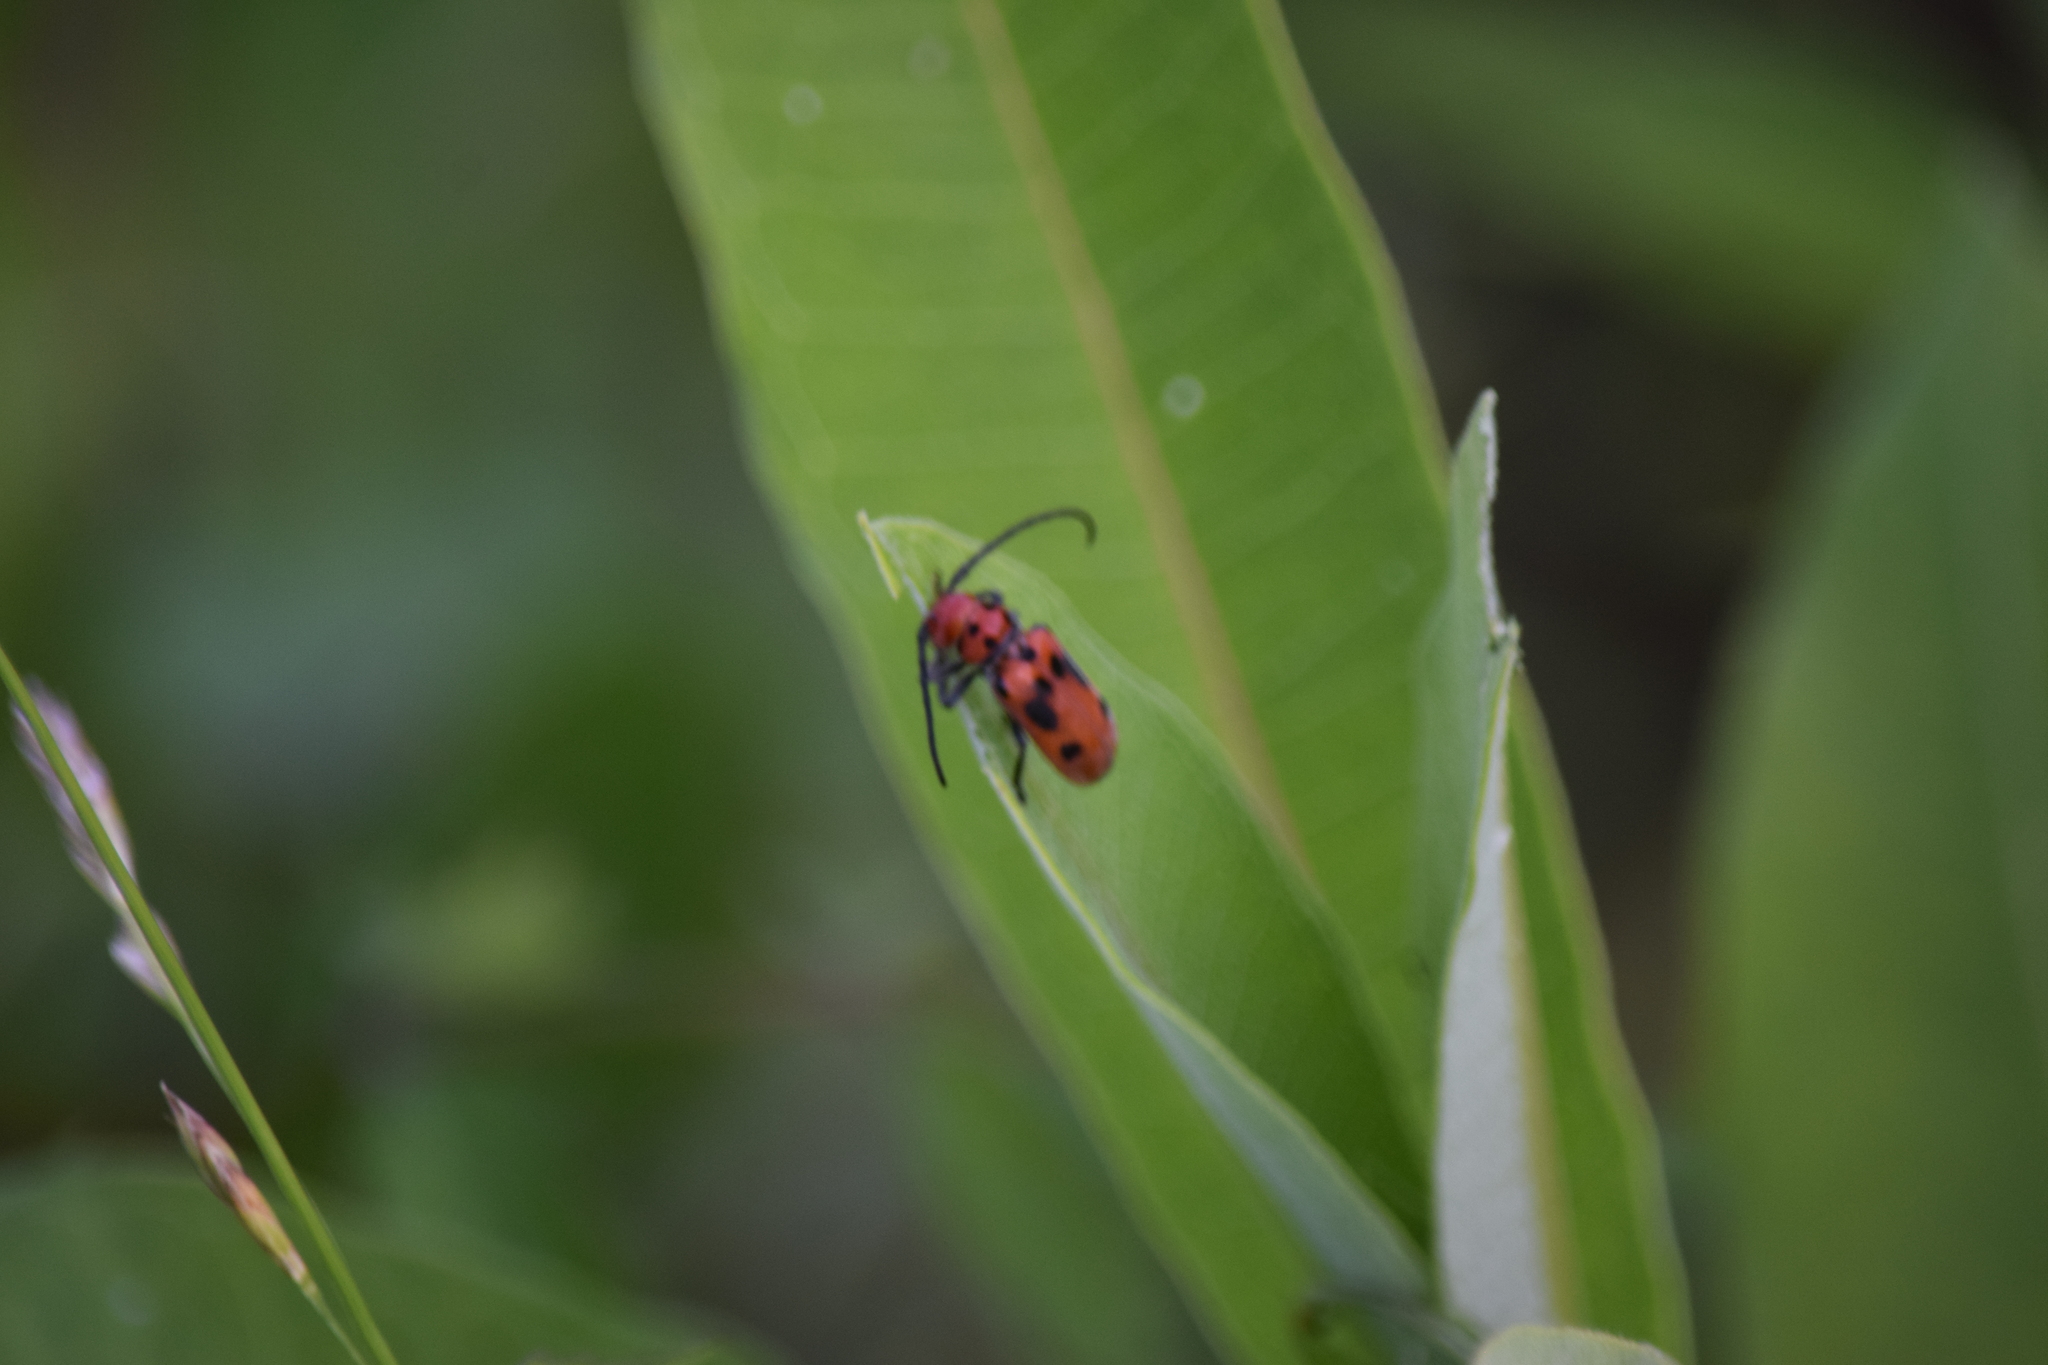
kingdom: Animalia
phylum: Arthropoda
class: Insecta
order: Coleoptera
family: Cerambycidae
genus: Tetraopes
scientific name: Tetraopes tetrophthalmus
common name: Red milkweed beetle
